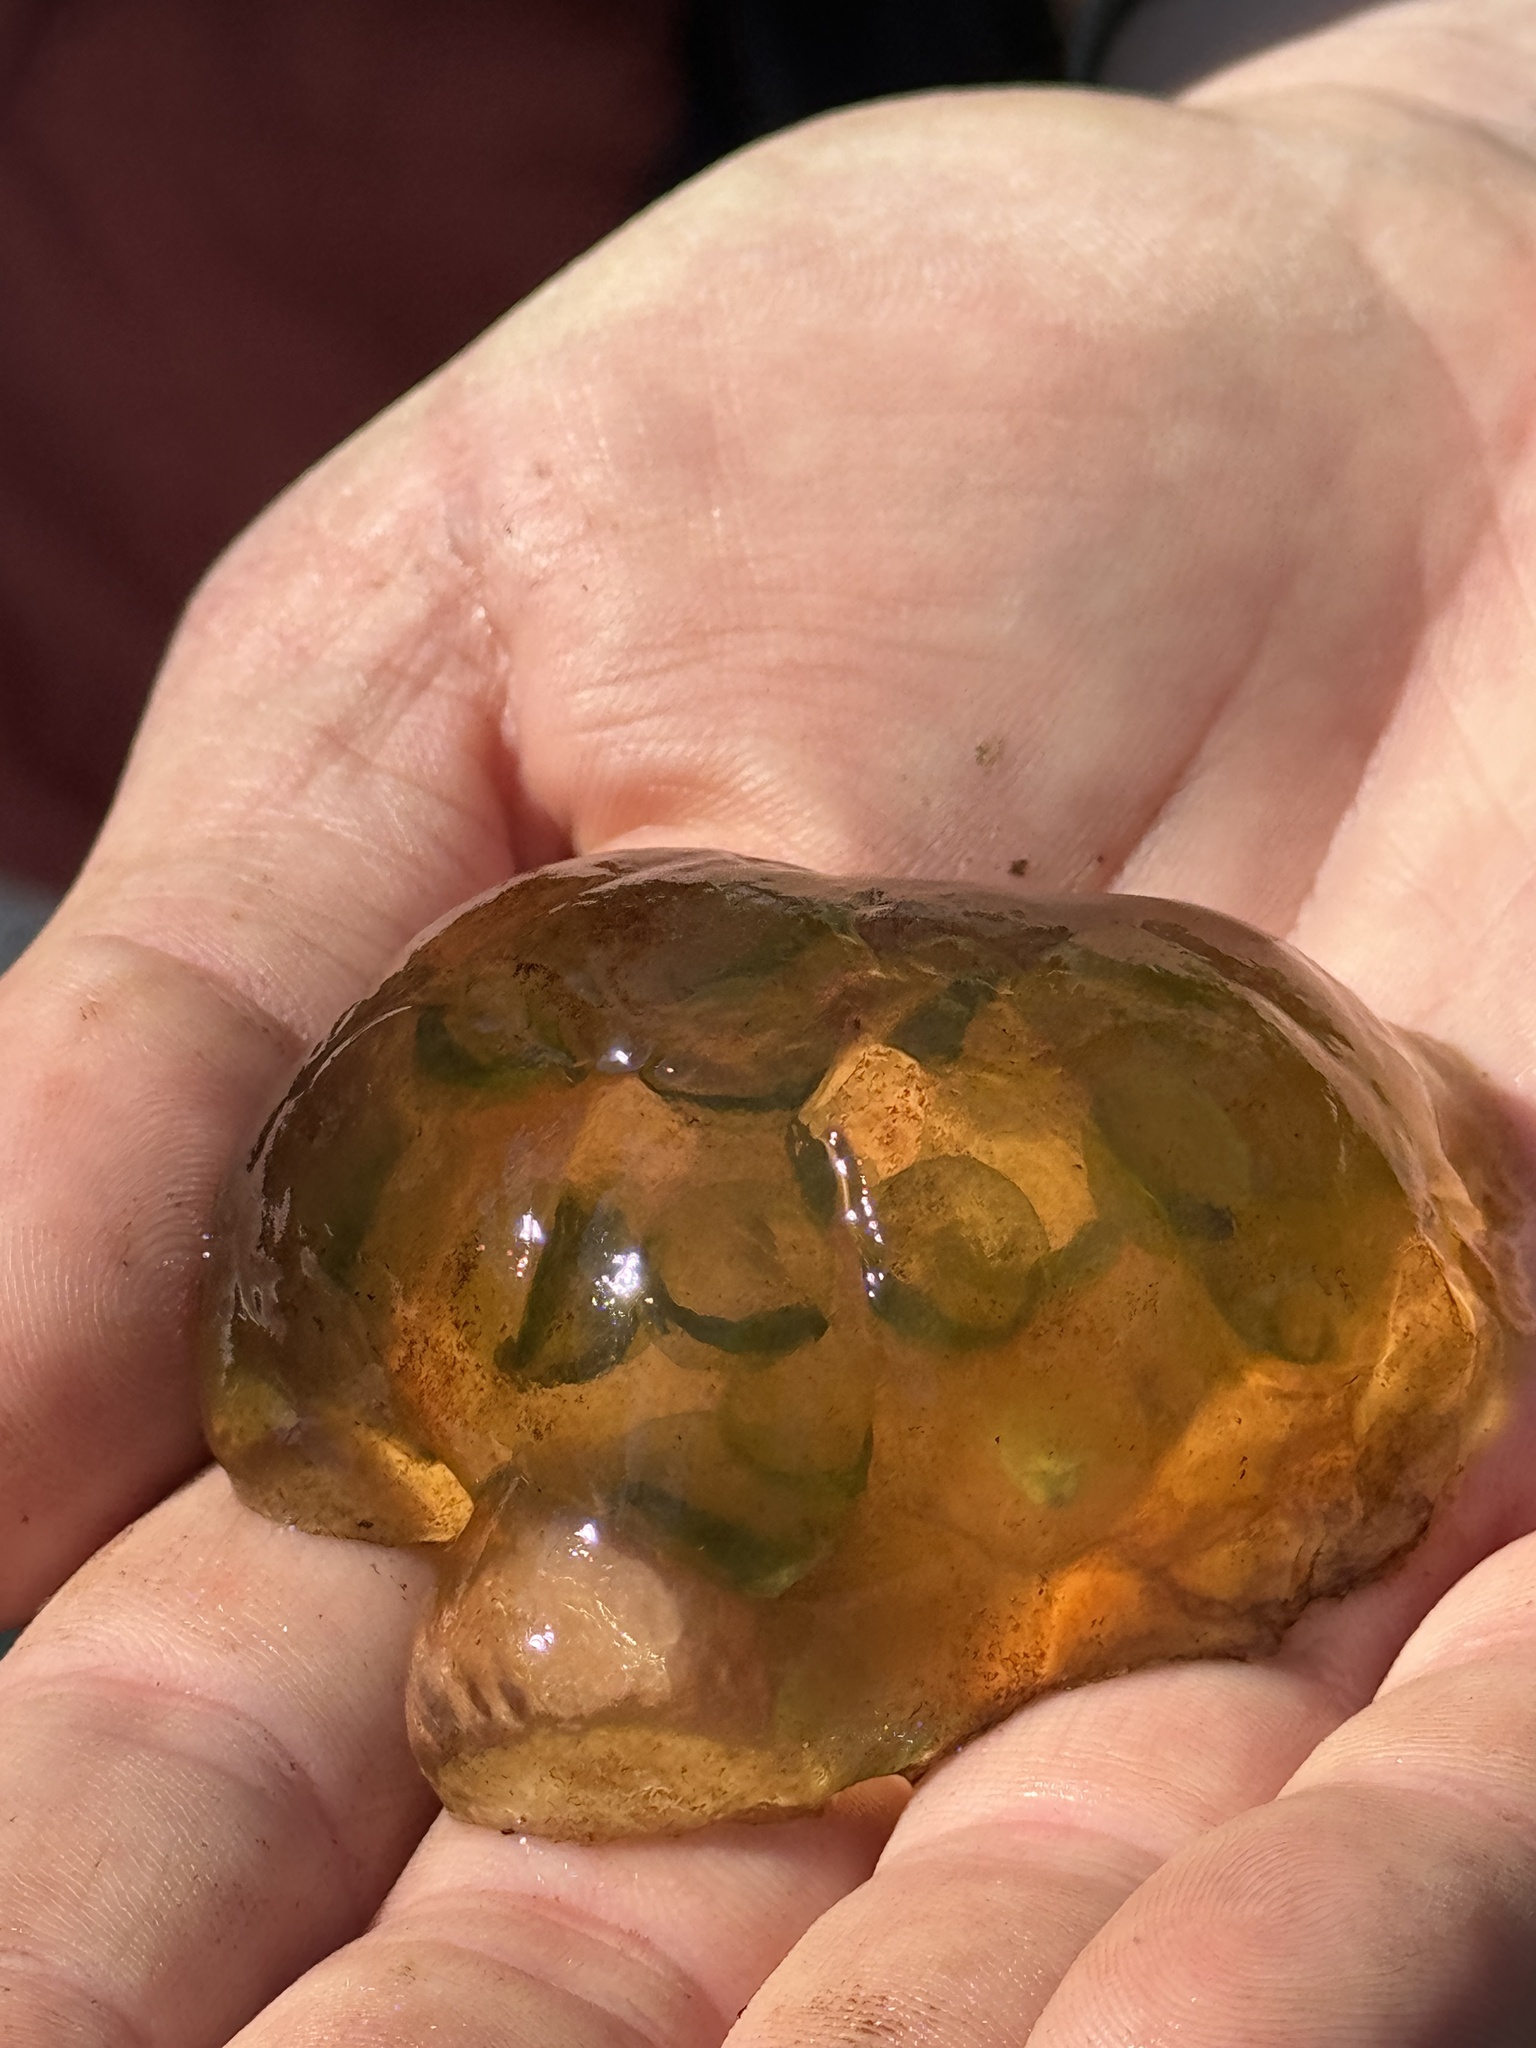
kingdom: Plantae
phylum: Chlorophyta
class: Chlorophyceae
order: Chlamydomonadales
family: Chlorococcaceae
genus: Oophila
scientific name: Oophila amblystomatis
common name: Salamander algae
